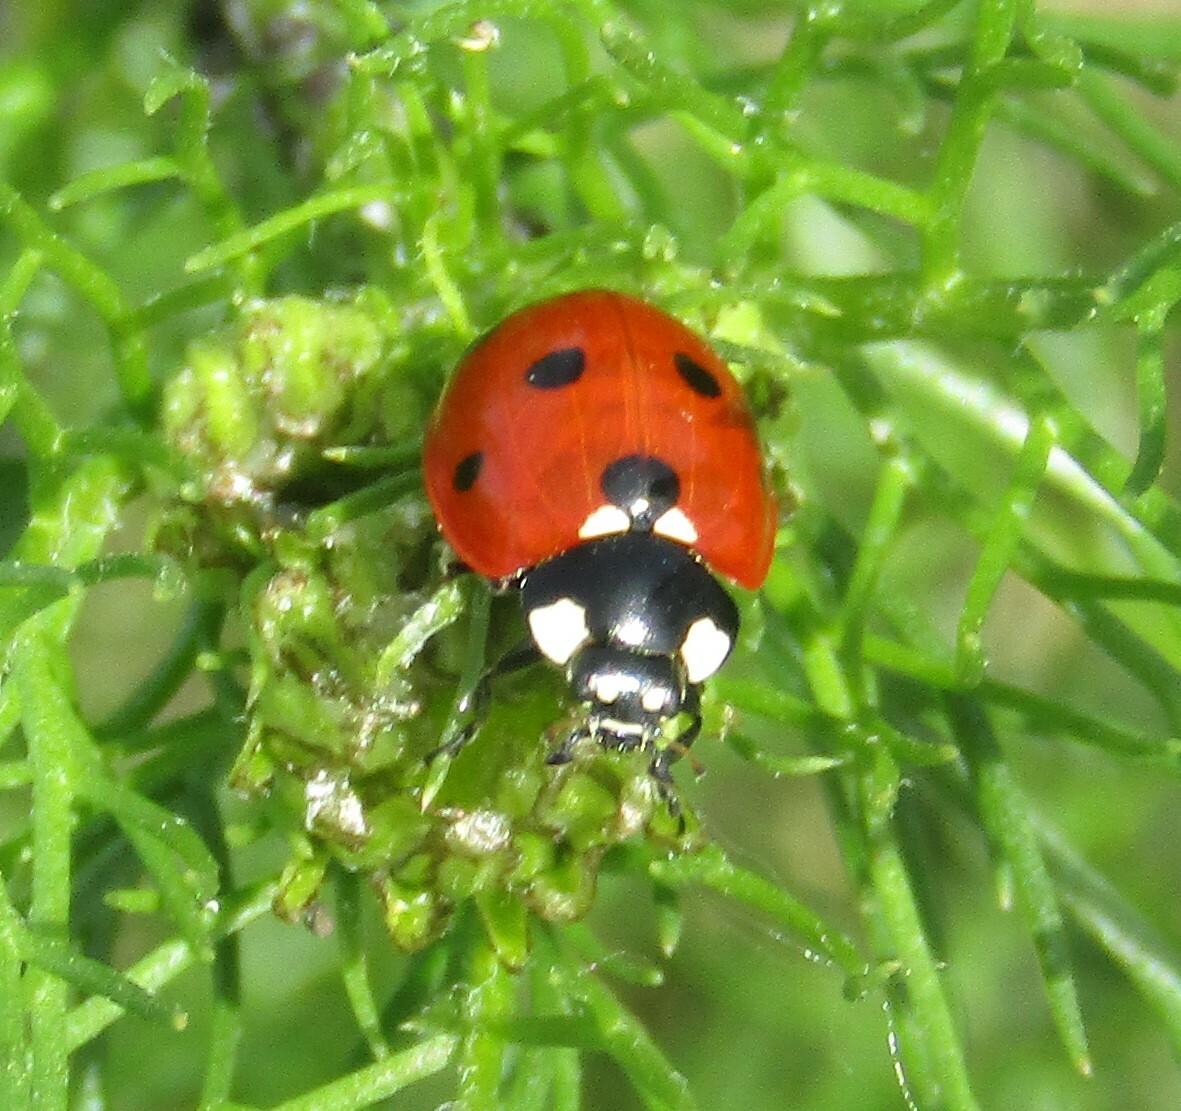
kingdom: Animalia
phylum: Arthropoda
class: Insecta
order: Coleoptera
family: Coccinellidae
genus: Coccinella
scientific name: Coccinella septempunctata
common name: Sevenspotted lady beetle
